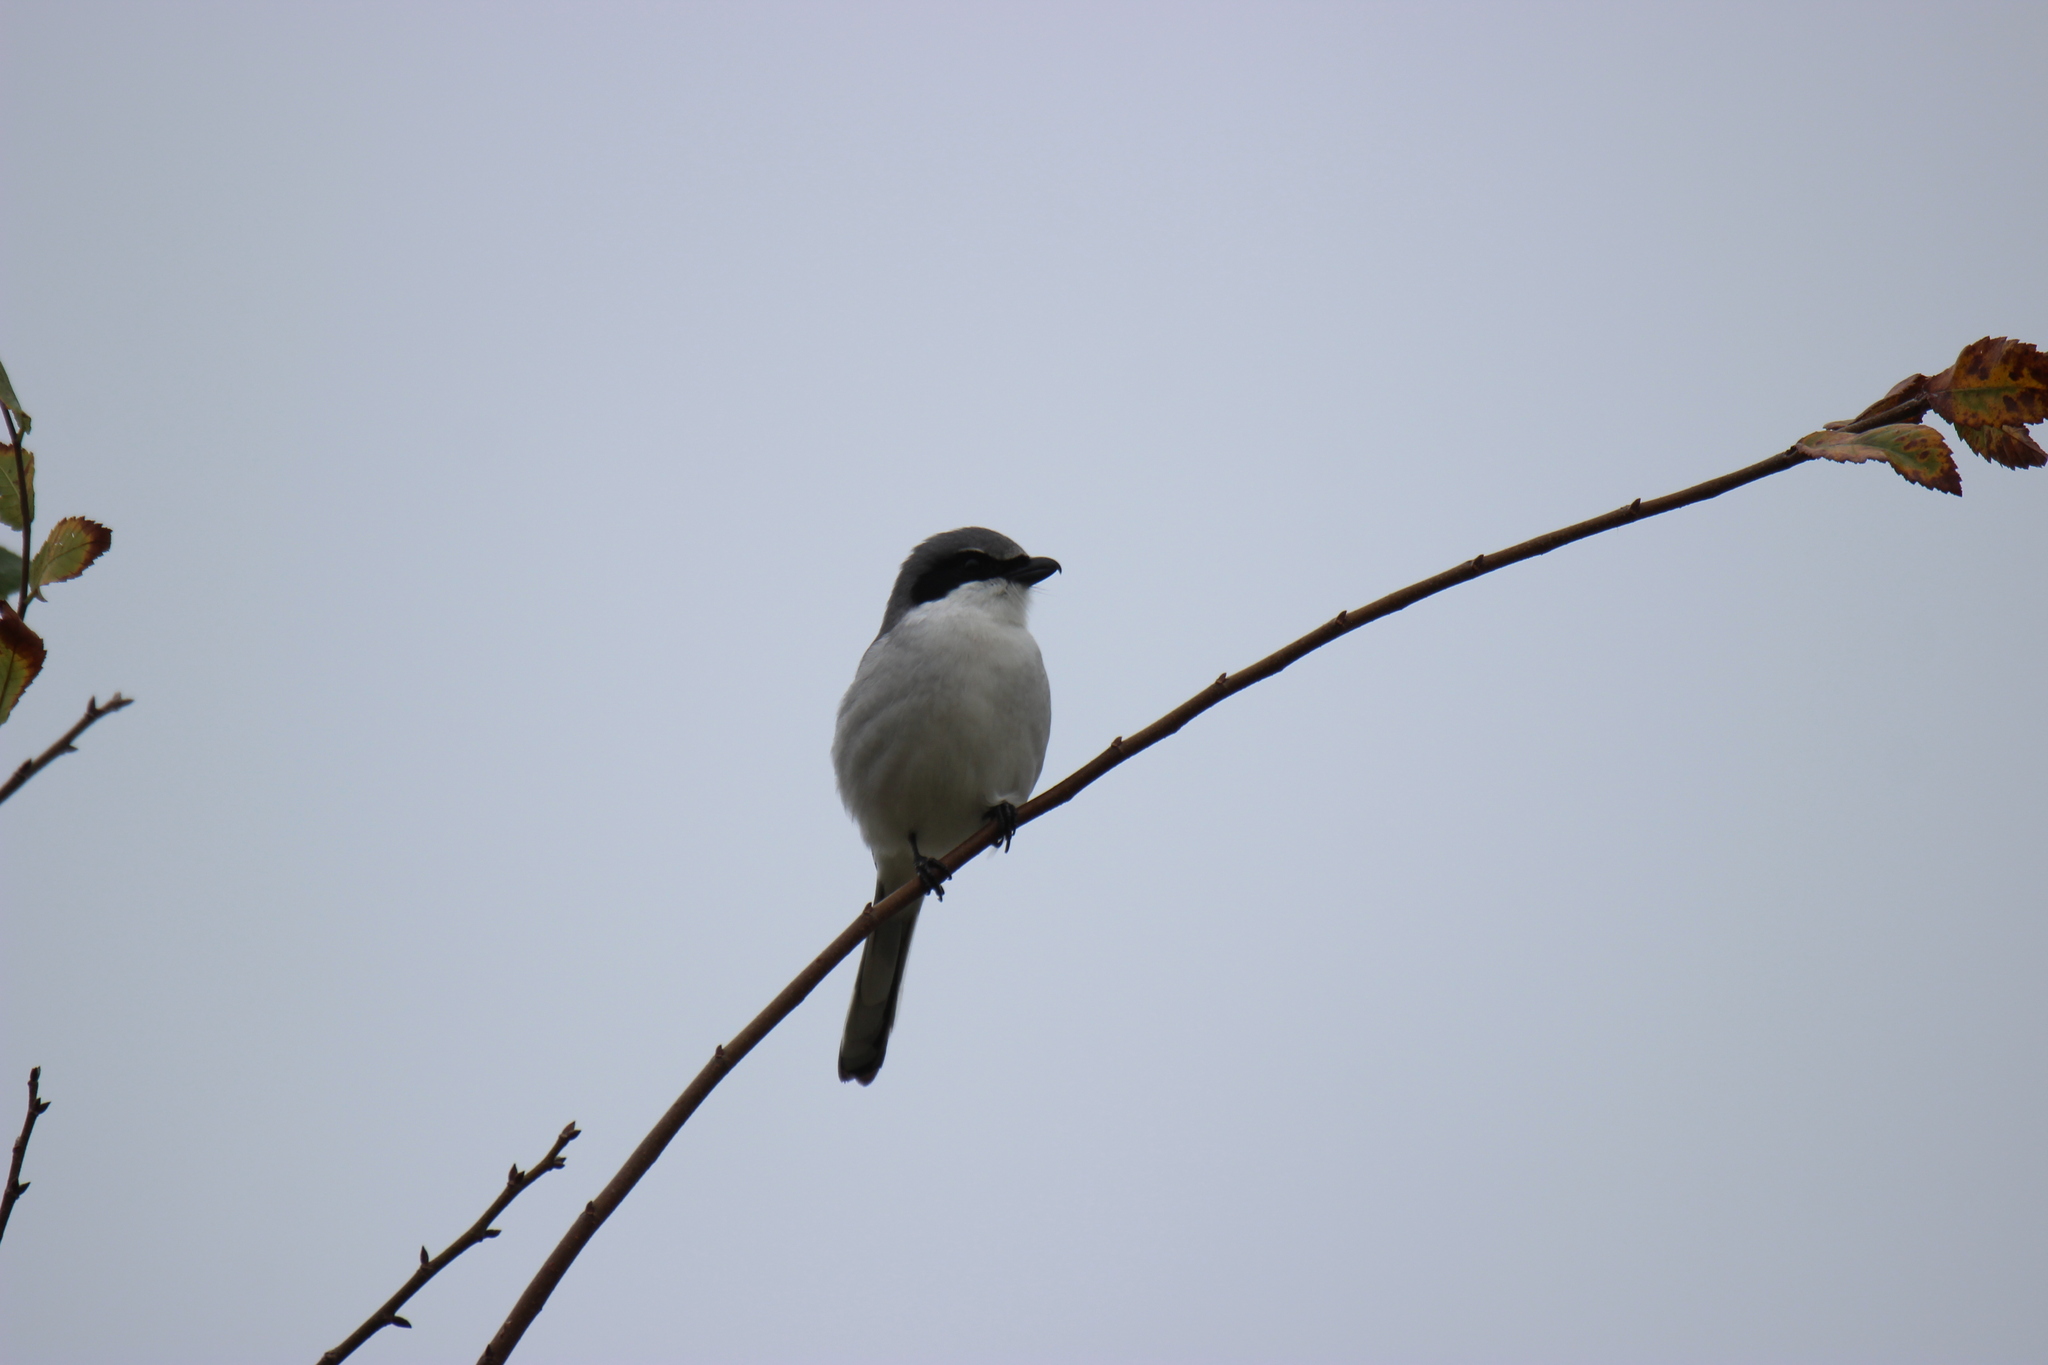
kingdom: Animalia
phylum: Chordata
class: Aves
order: Passeriformes
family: Laniidae
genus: Lanius
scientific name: Lanius ludovicianus
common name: Loggerhead shrike
